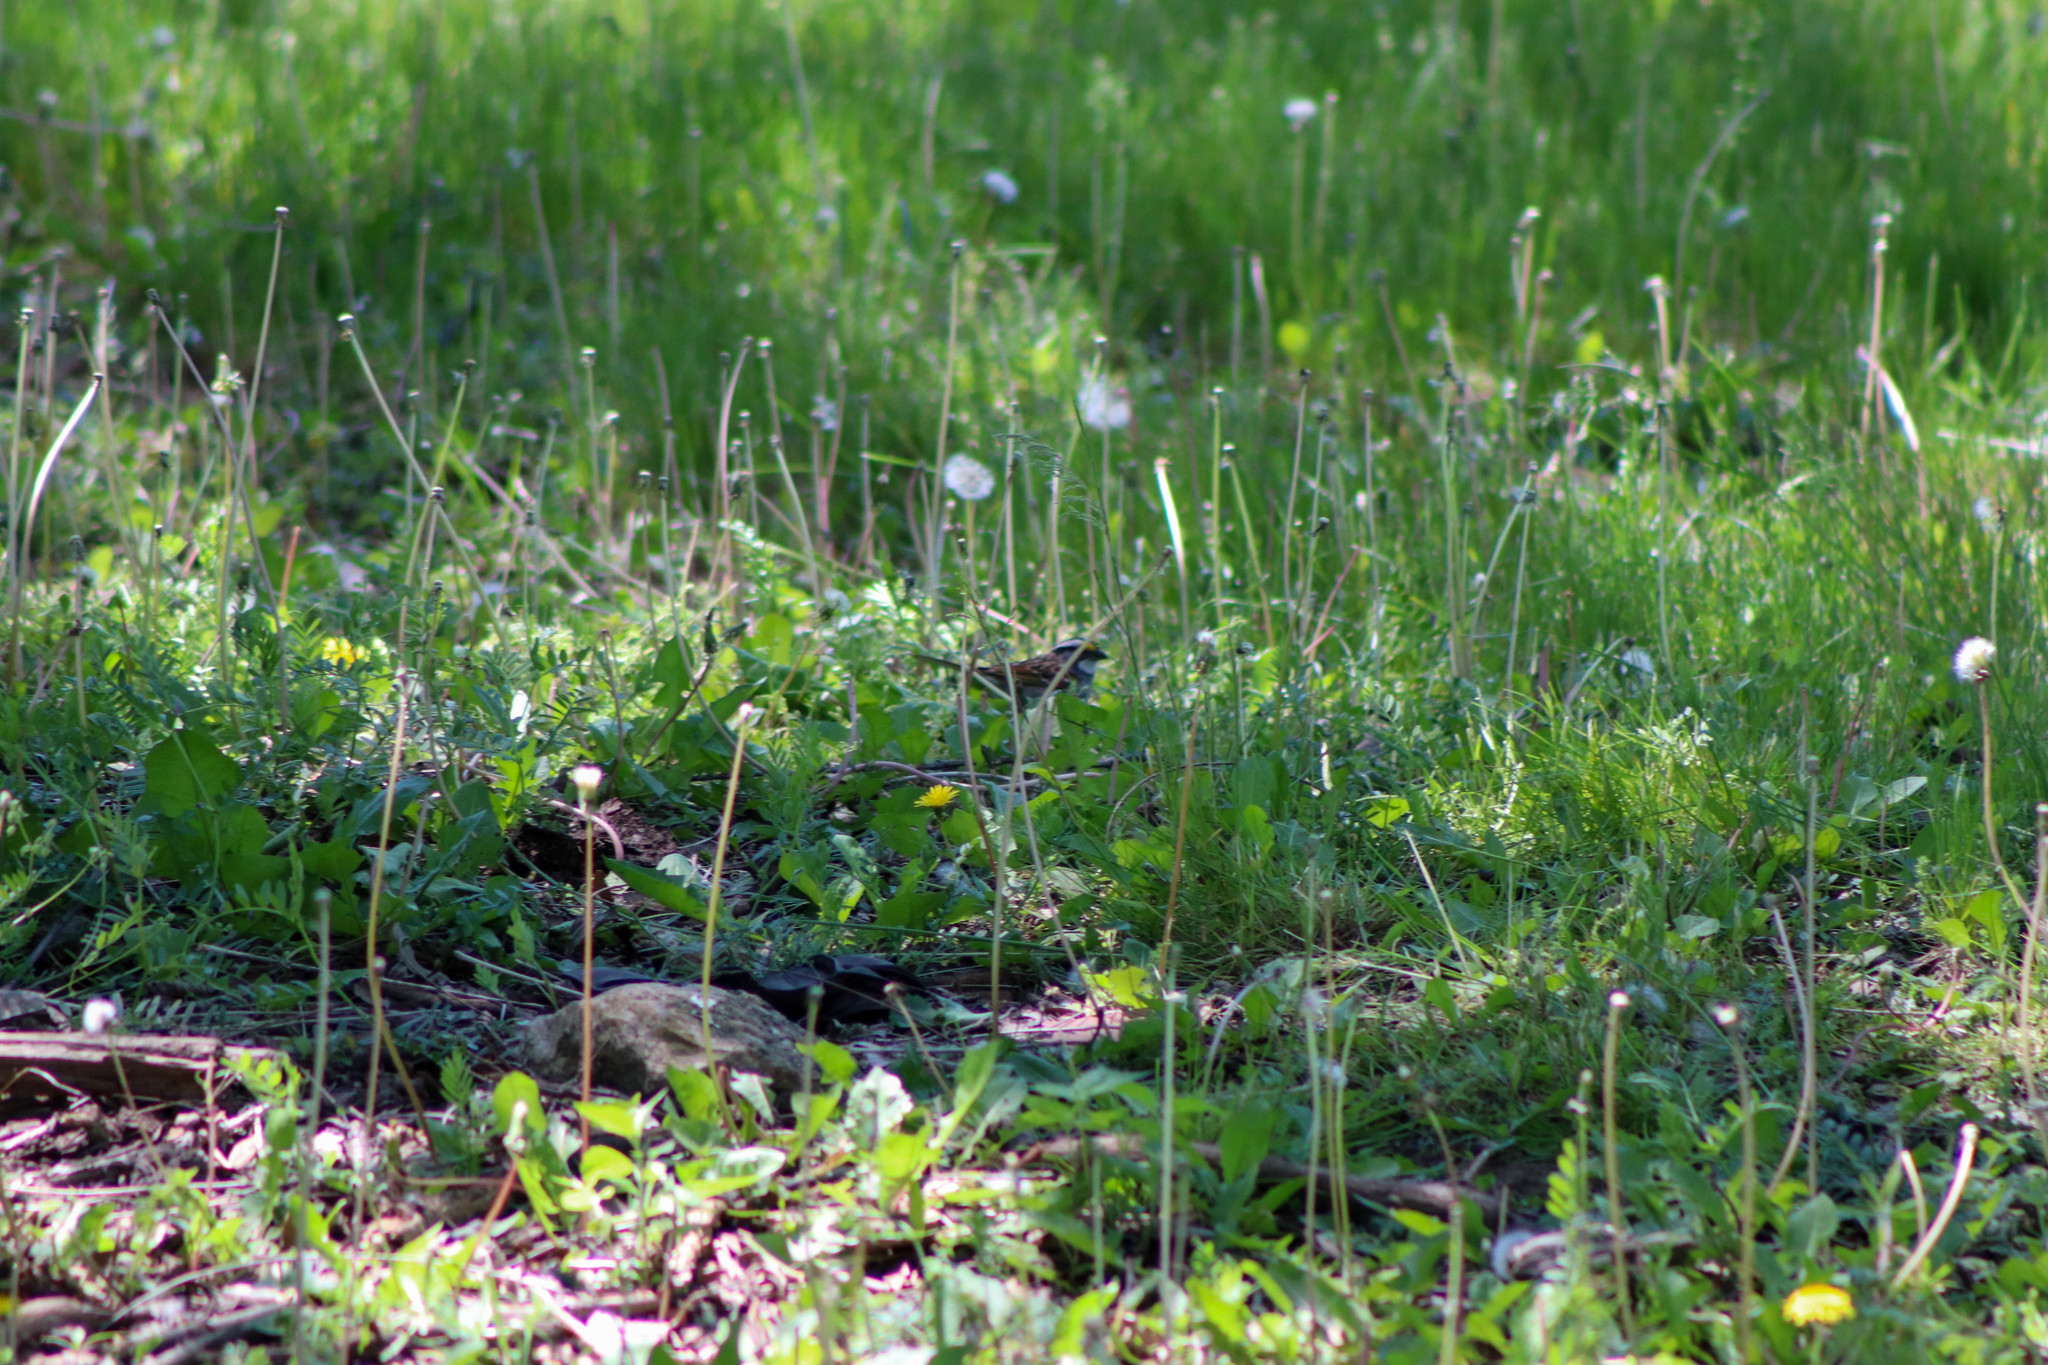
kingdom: Animalia
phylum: Chordata
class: Aves
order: Passeriformes
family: Passerellidae
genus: Zonotrichia
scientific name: Zonotrichia albicollis
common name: White-throated sparrow
